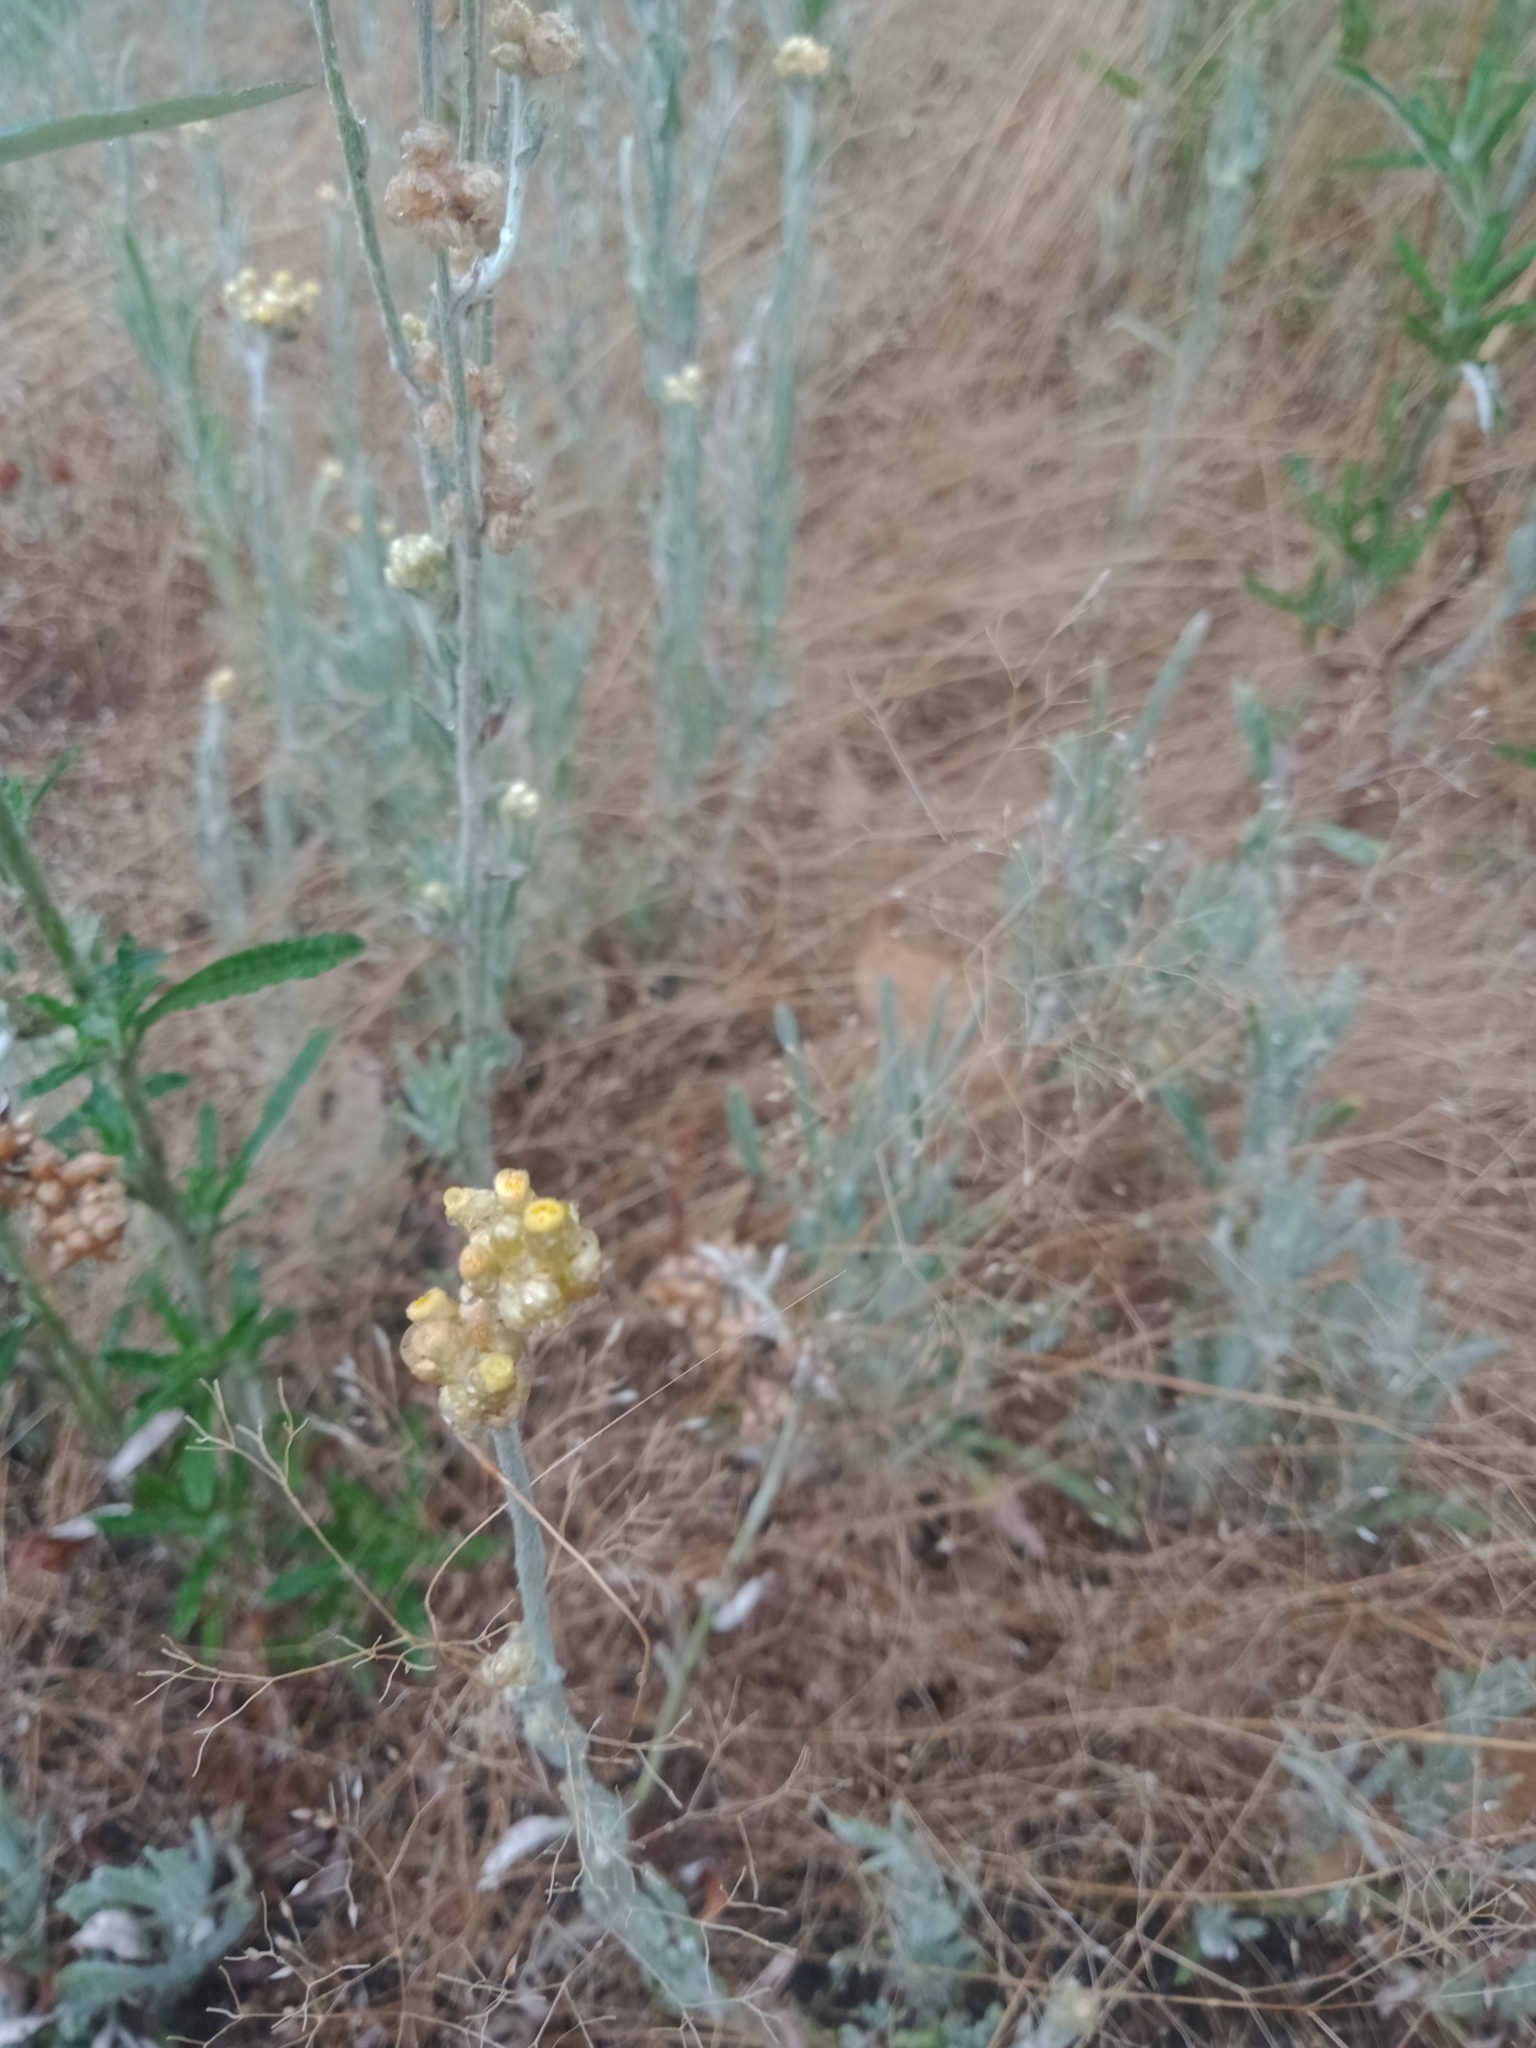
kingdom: Plantae
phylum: Tracheophyta
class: Magnoliopsida
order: Asterales
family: Asteraceae
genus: Helichrysum
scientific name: Helichrysum luteoalbum
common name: Daisy
